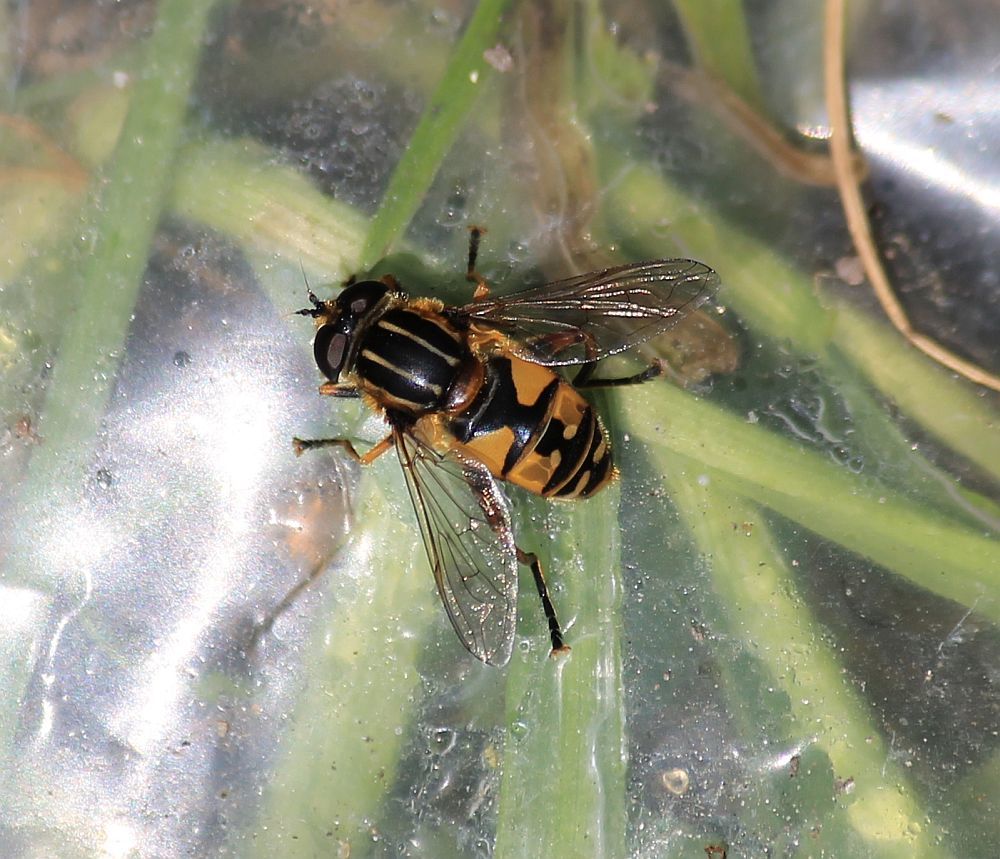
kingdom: Animalia
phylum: Arthropoda
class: Insecta
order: Diptera
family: Syrphidae
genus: Helophilus
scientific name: Helophilus pendulus
